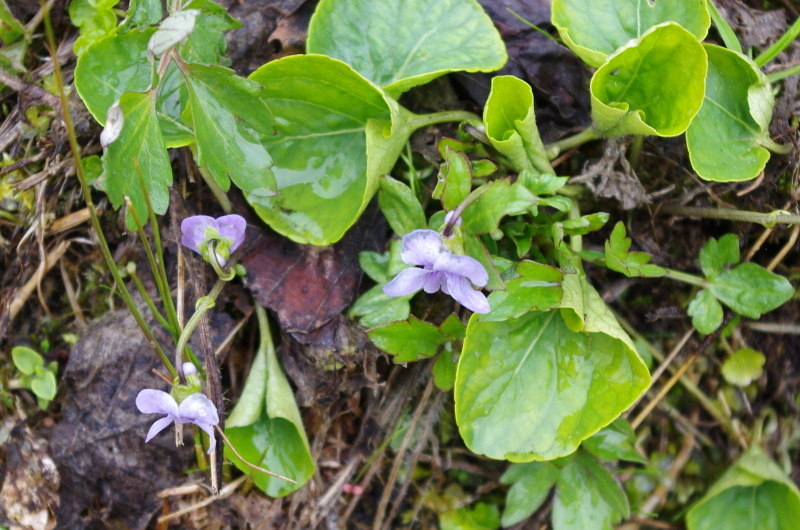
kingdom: Plantae
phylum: Tracheophyta
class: Magnoliopsida
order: Malpighiales
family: Violaceae
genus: Viola
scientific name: Viola mirabilis
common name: Wonder violet
